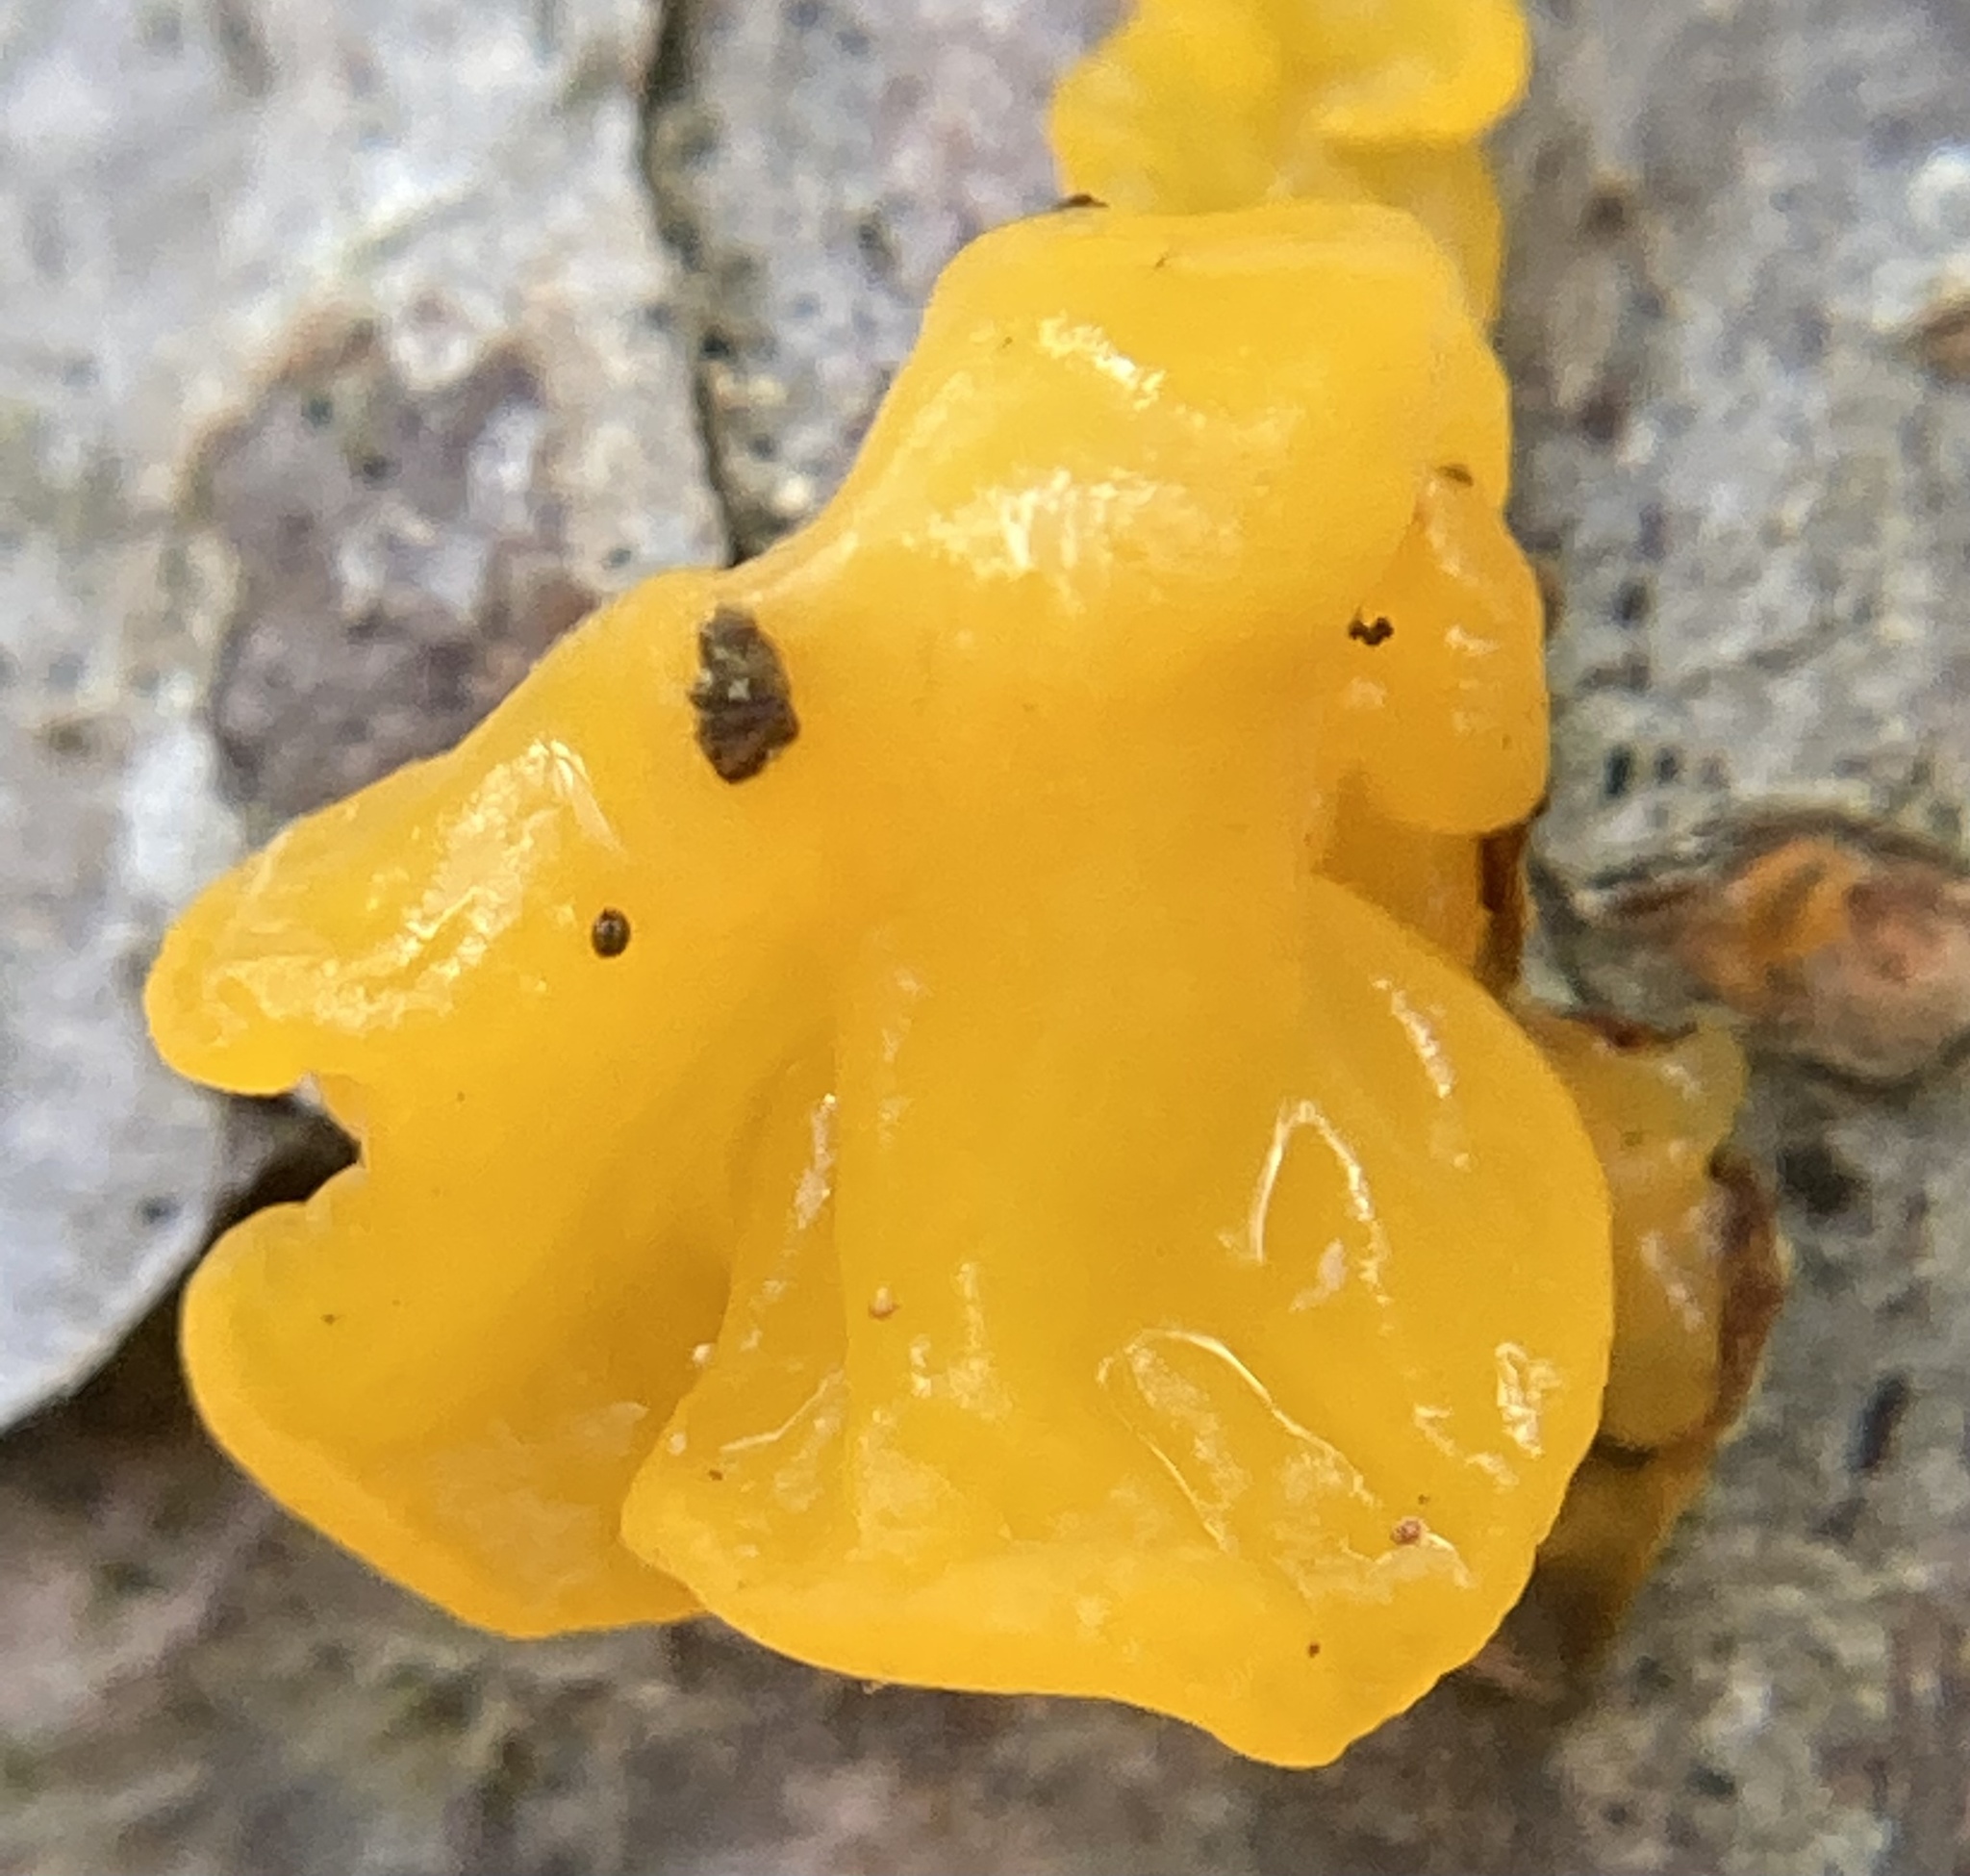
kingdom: Fungi
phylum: Basidiomycota
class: Dacrymycetes
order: Dacrymycetales
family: Dacrymycetaceae
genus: Dacrymyces
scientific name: Dacrymyces chrysospermus
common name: Orange jelly spot
